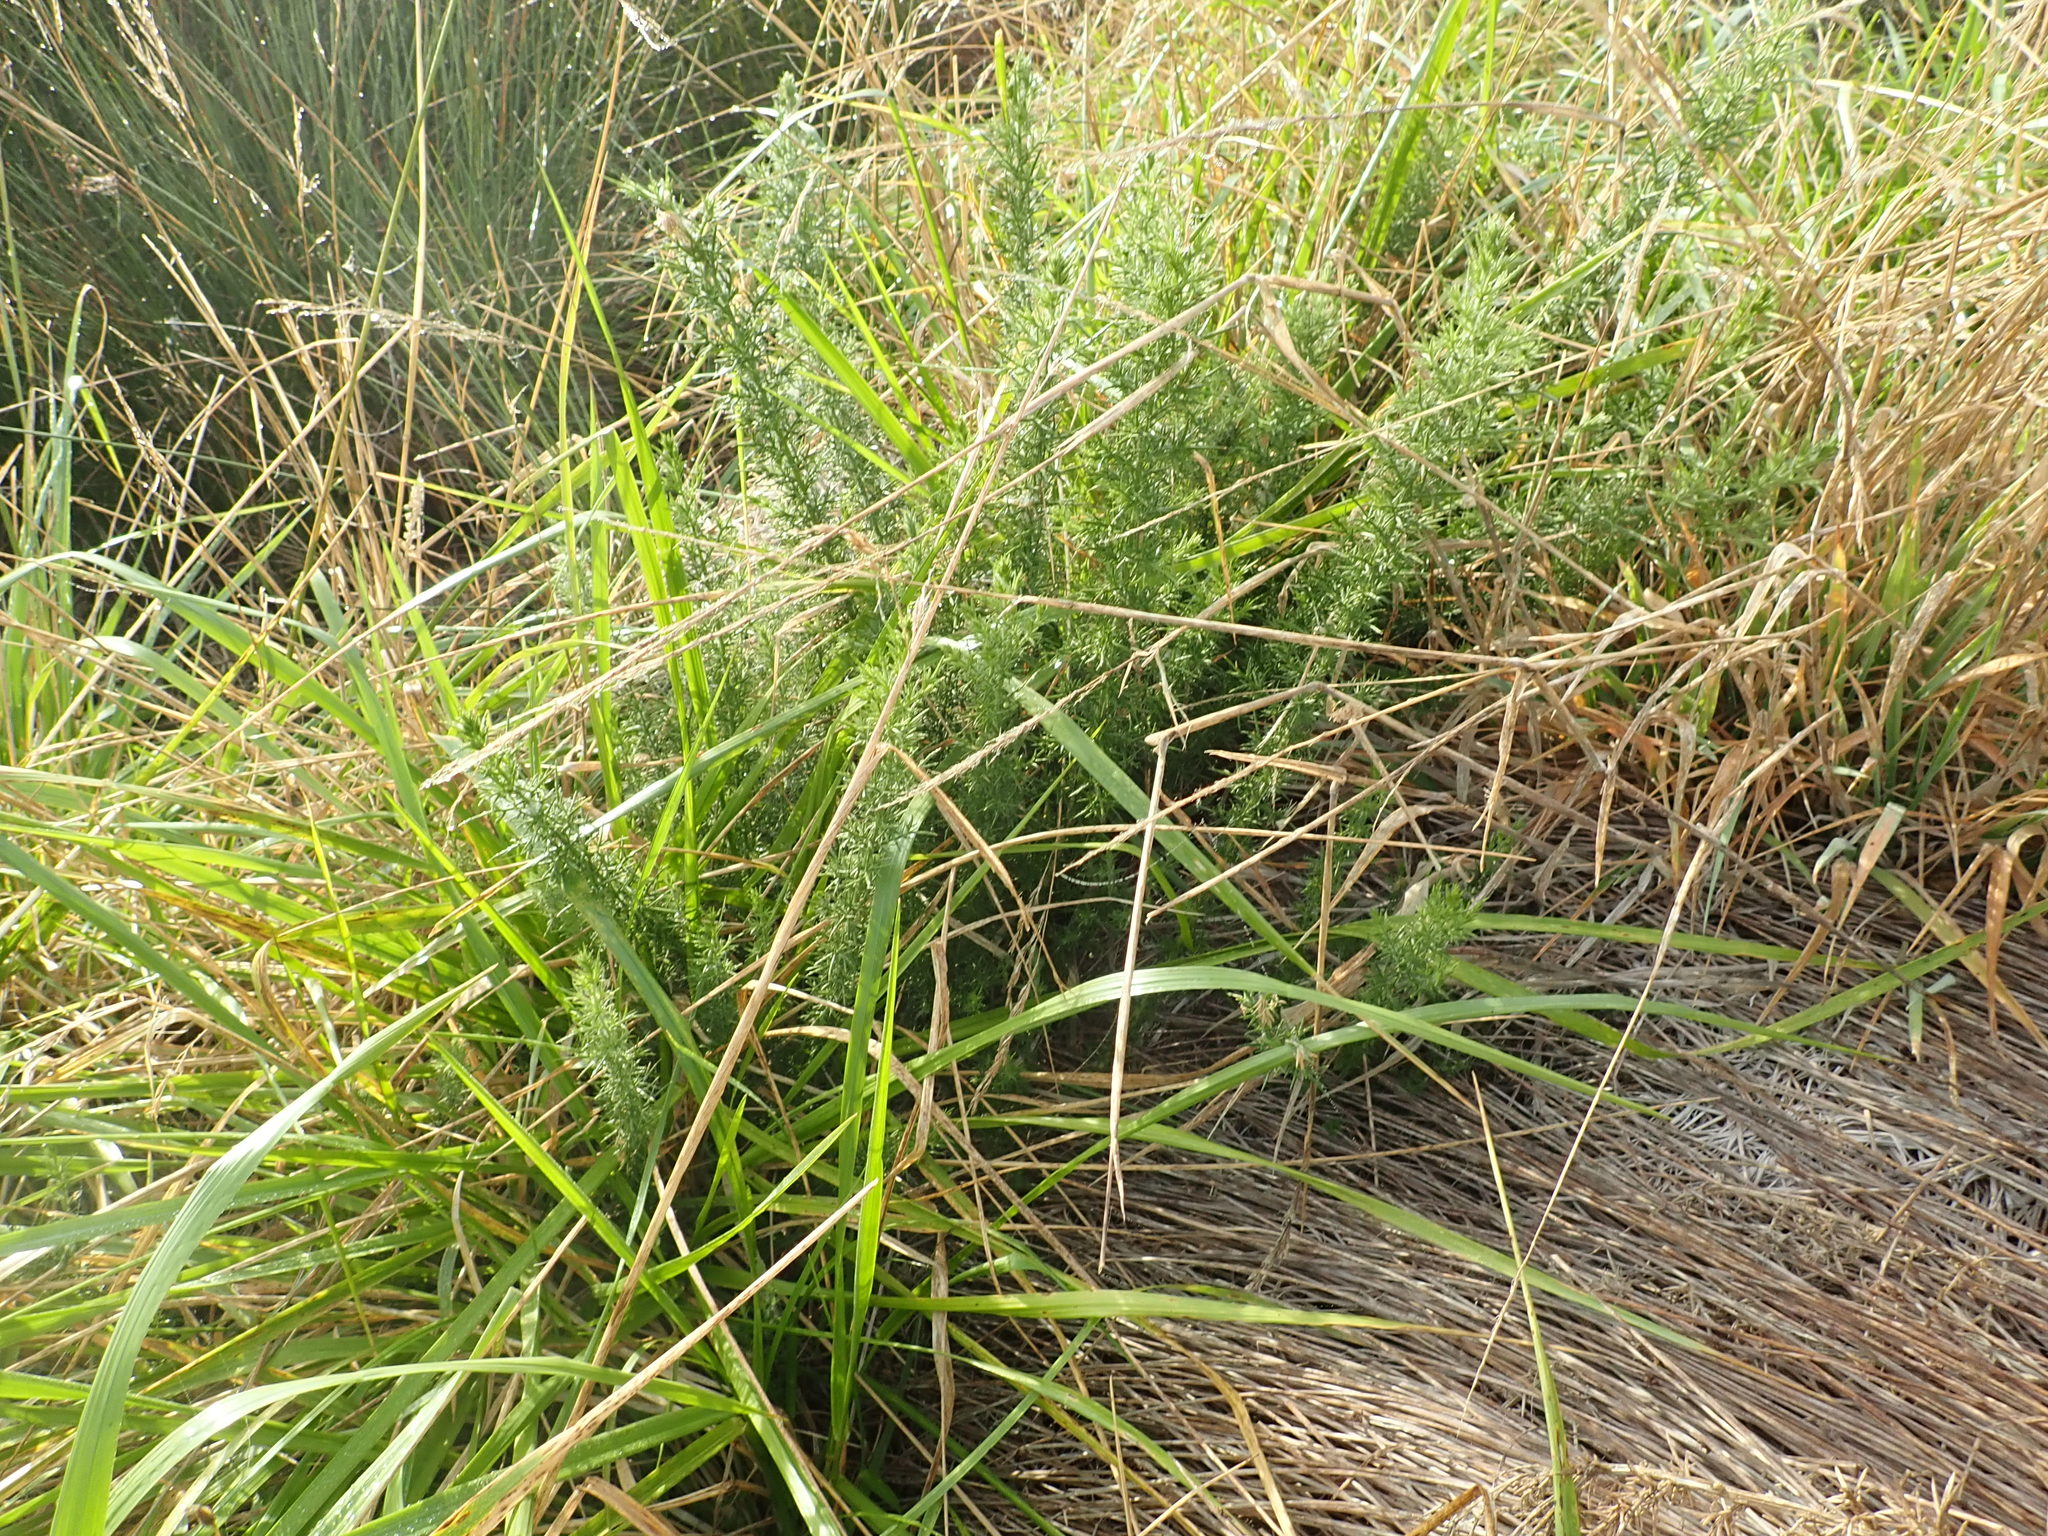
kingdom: Plantae
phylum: Tracheophyta
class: Magnoliopsida
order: Fabales
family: Fabaceae
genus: Ulex
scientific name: Ulex europaeus
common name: Common gorse
